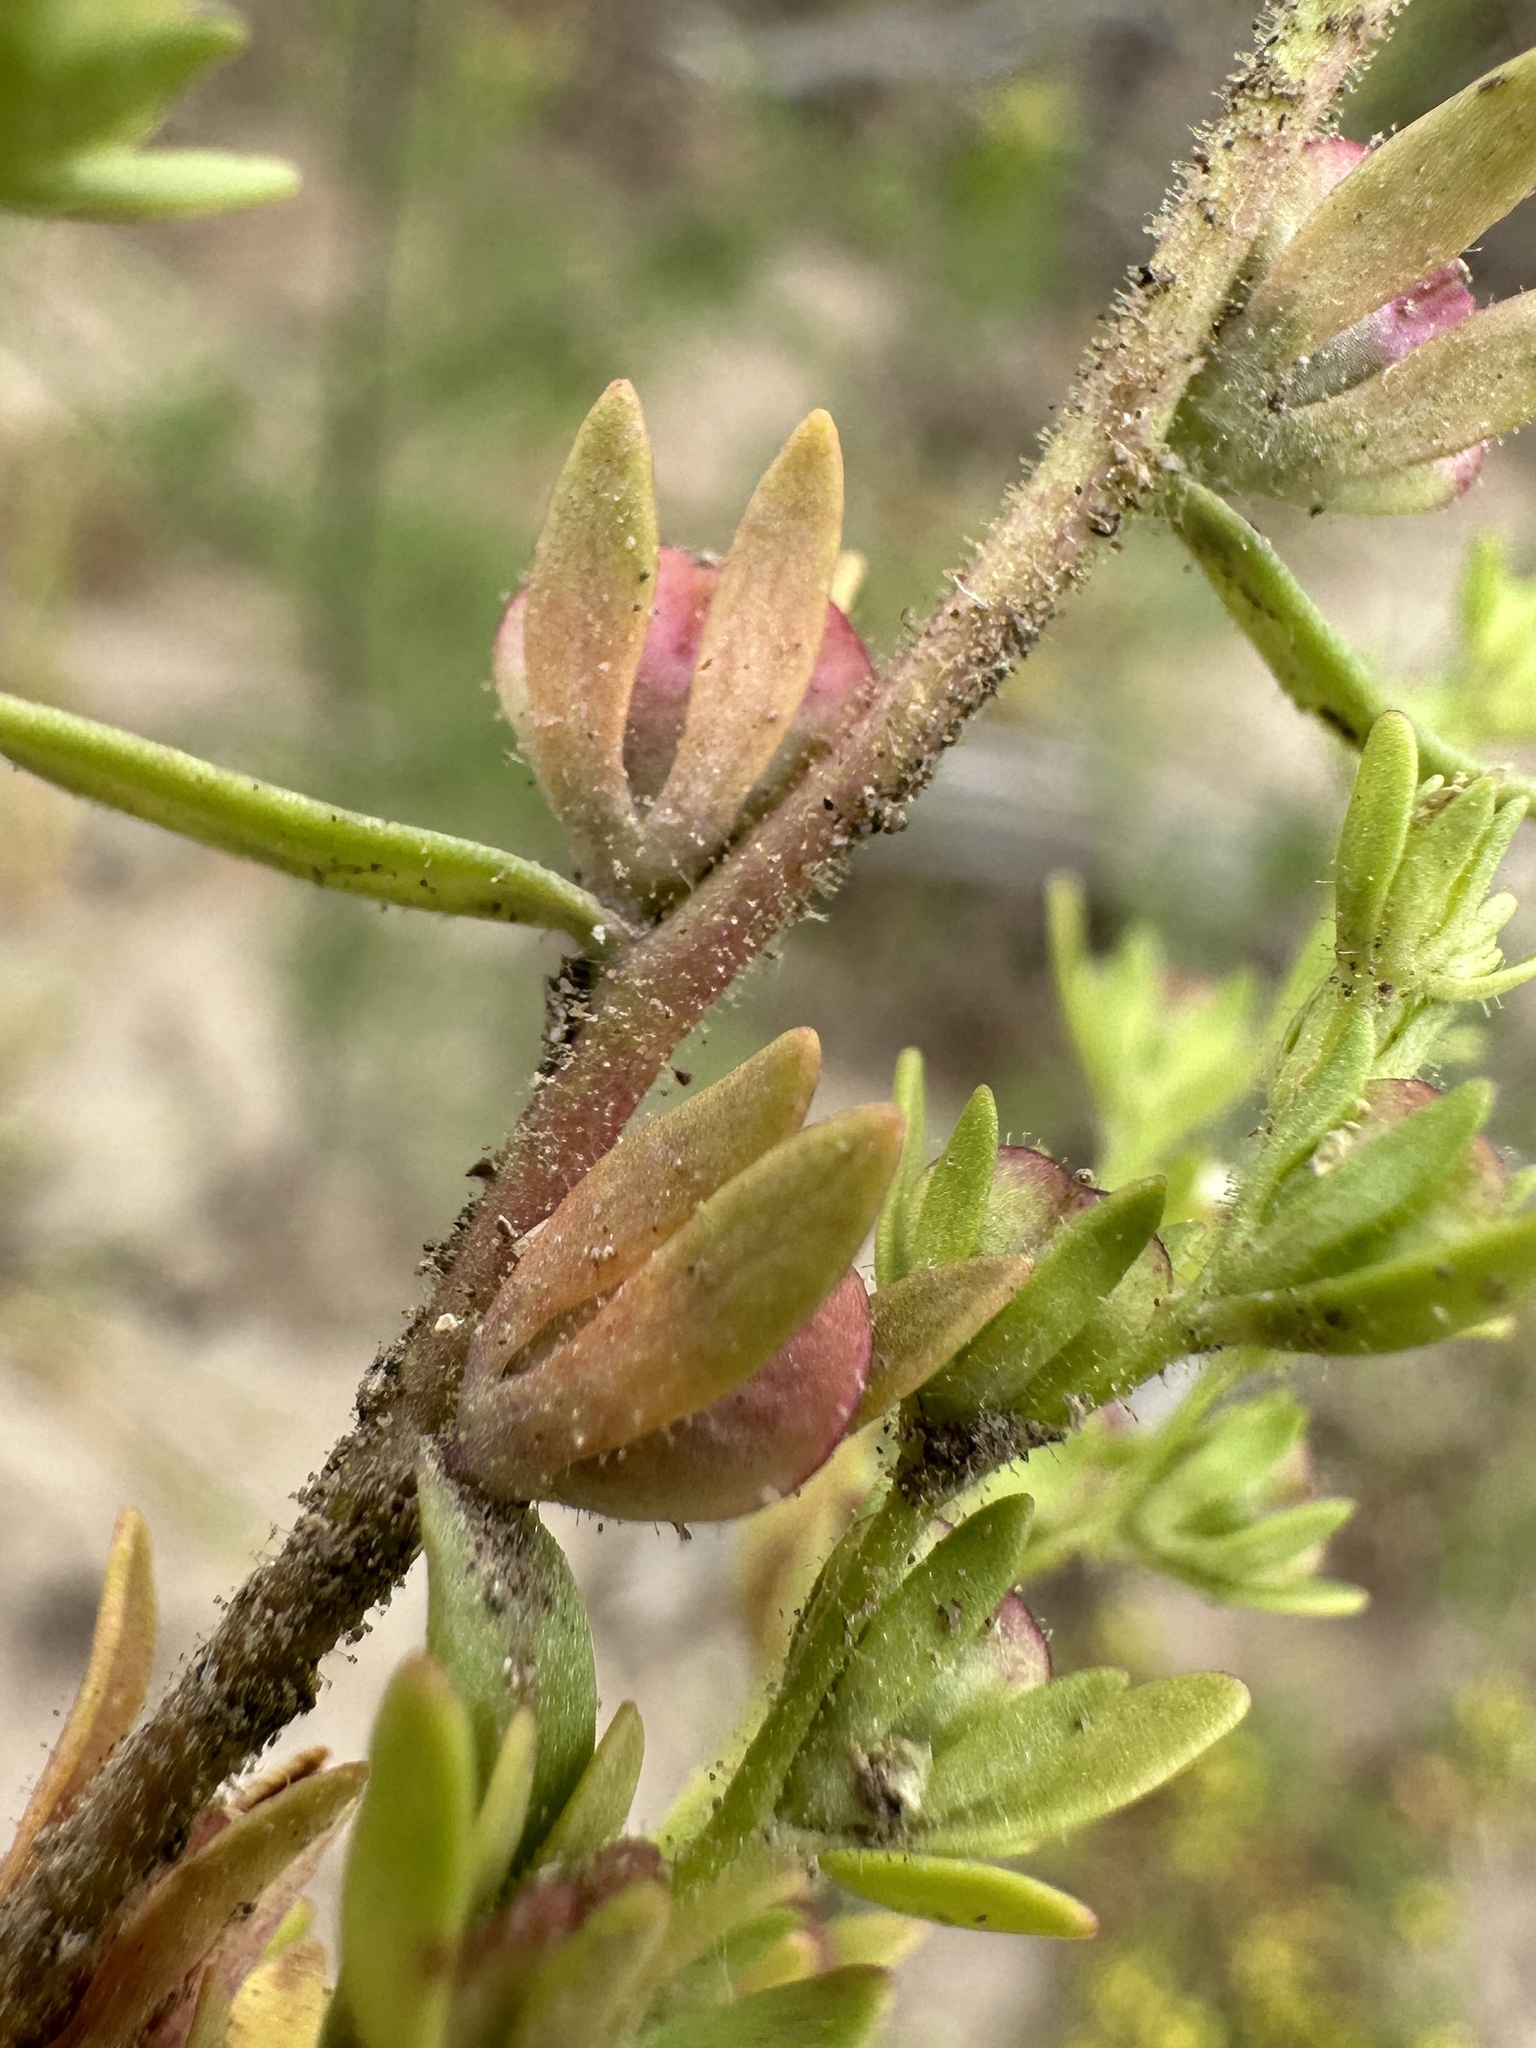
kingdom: Plantae
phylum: Tracheophyta
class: Magnoliopsida
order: Lamiales
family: Plantaginaceae
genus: Veronica
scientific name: Veronica peregrina
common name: Neckweed
